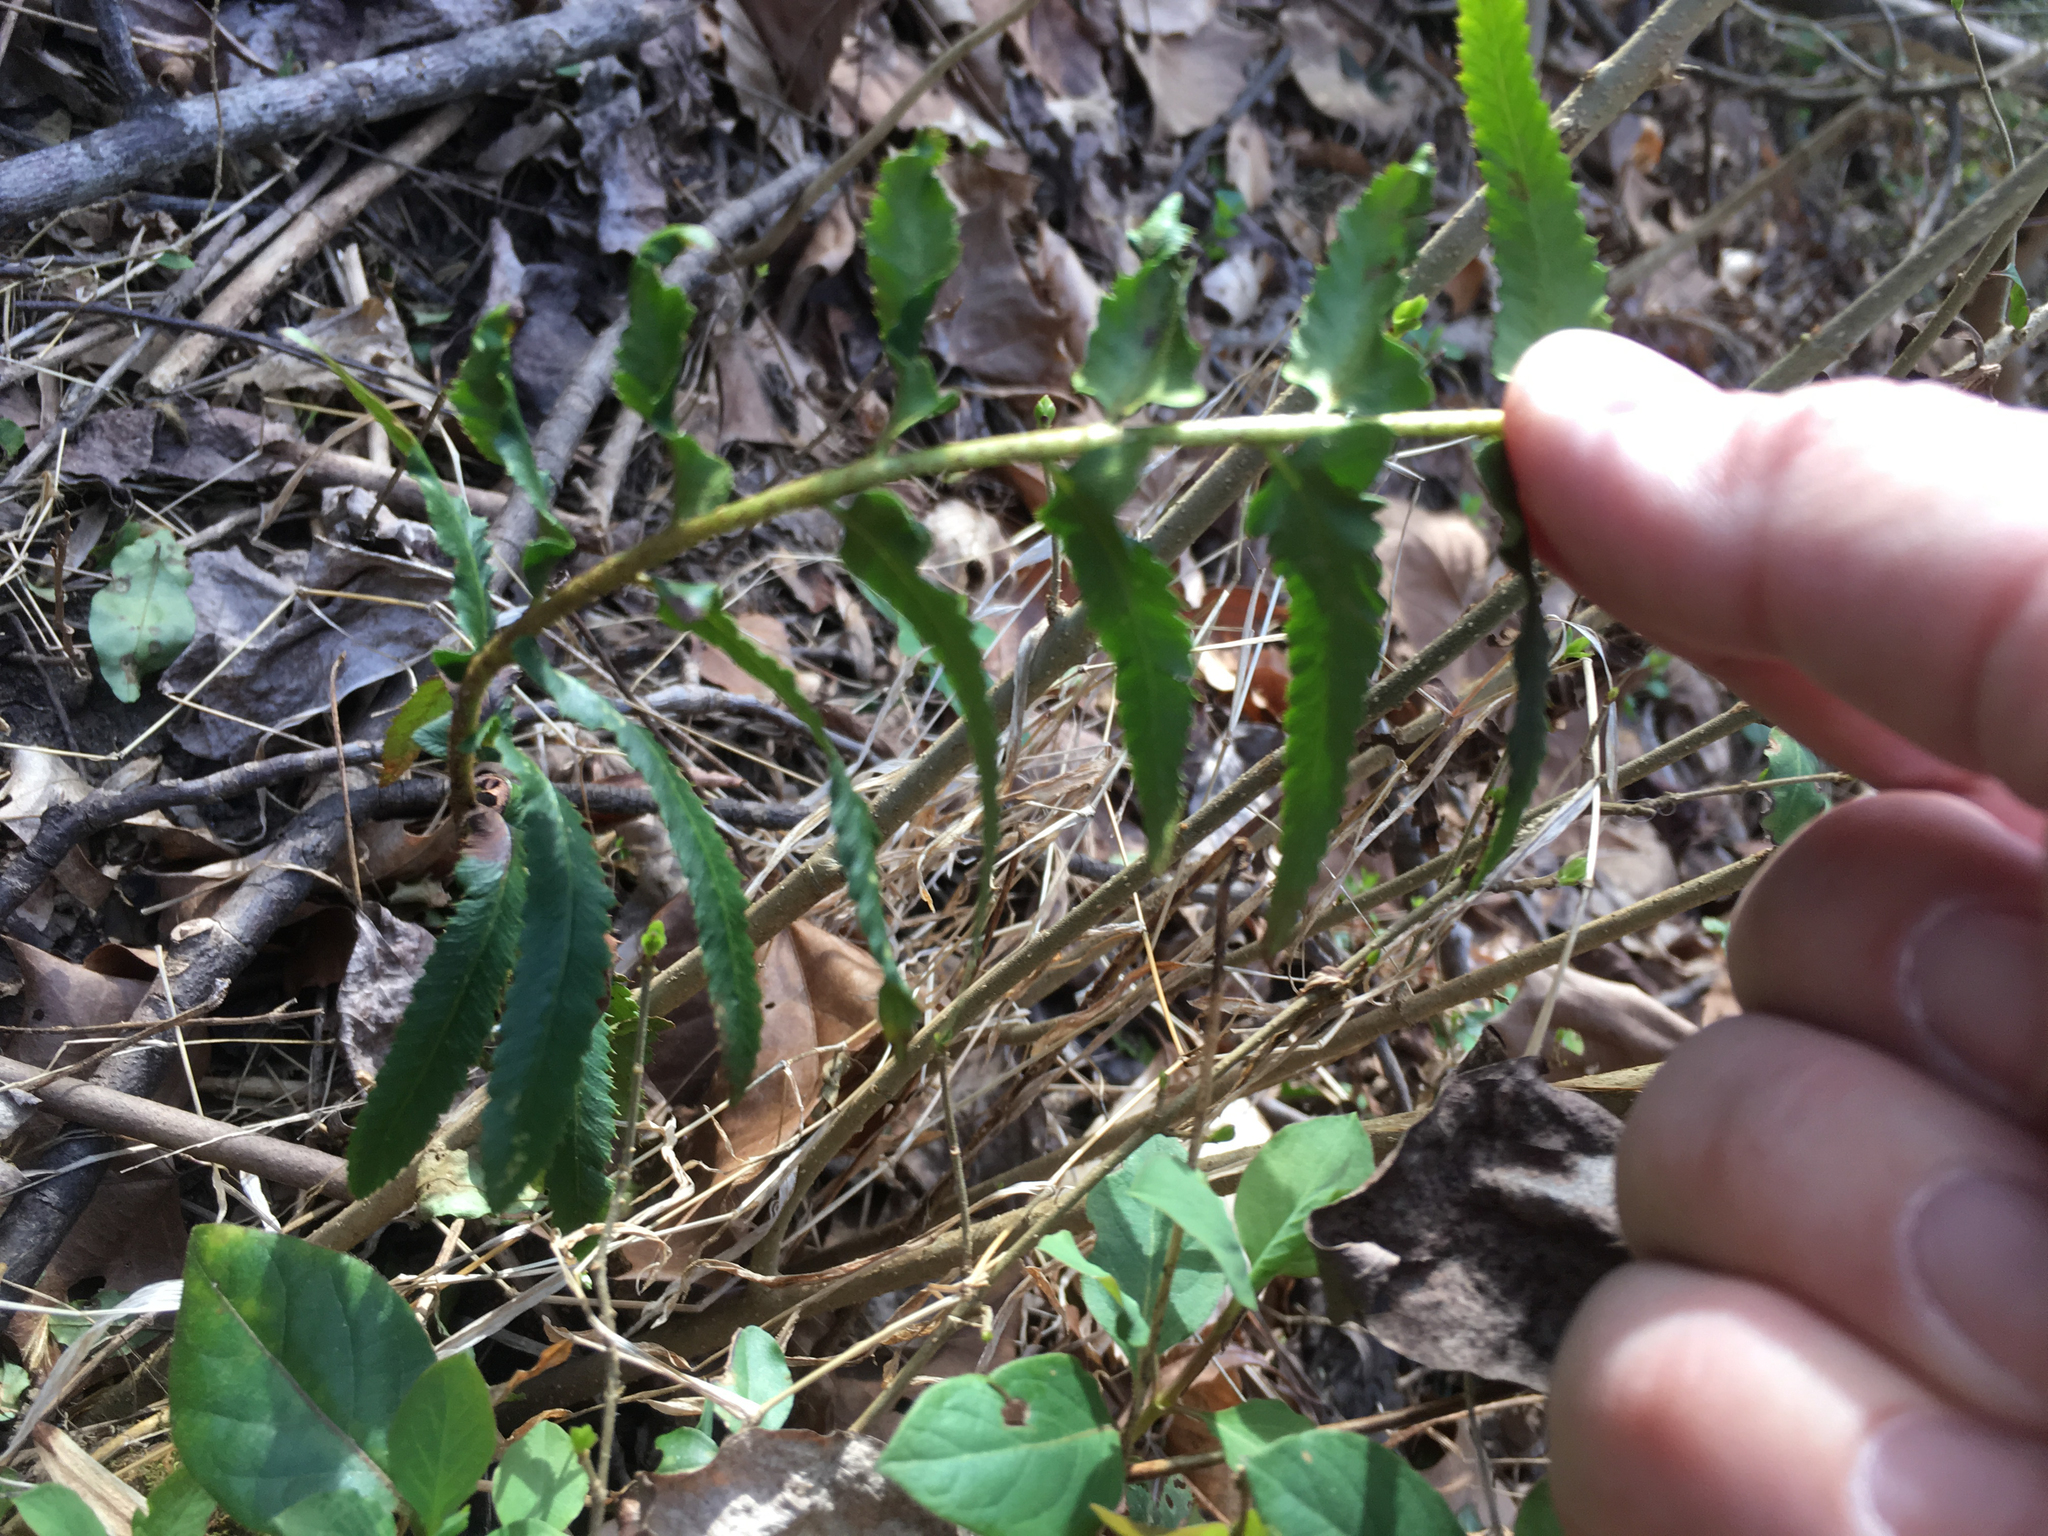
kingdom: Plantae
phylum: Tracheophyta
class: Polypodiopsida
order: Polypodiales
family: Dryopteridaceae
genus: Polystichum
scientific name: Polystichum acrostichoides
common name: Christmas fern
